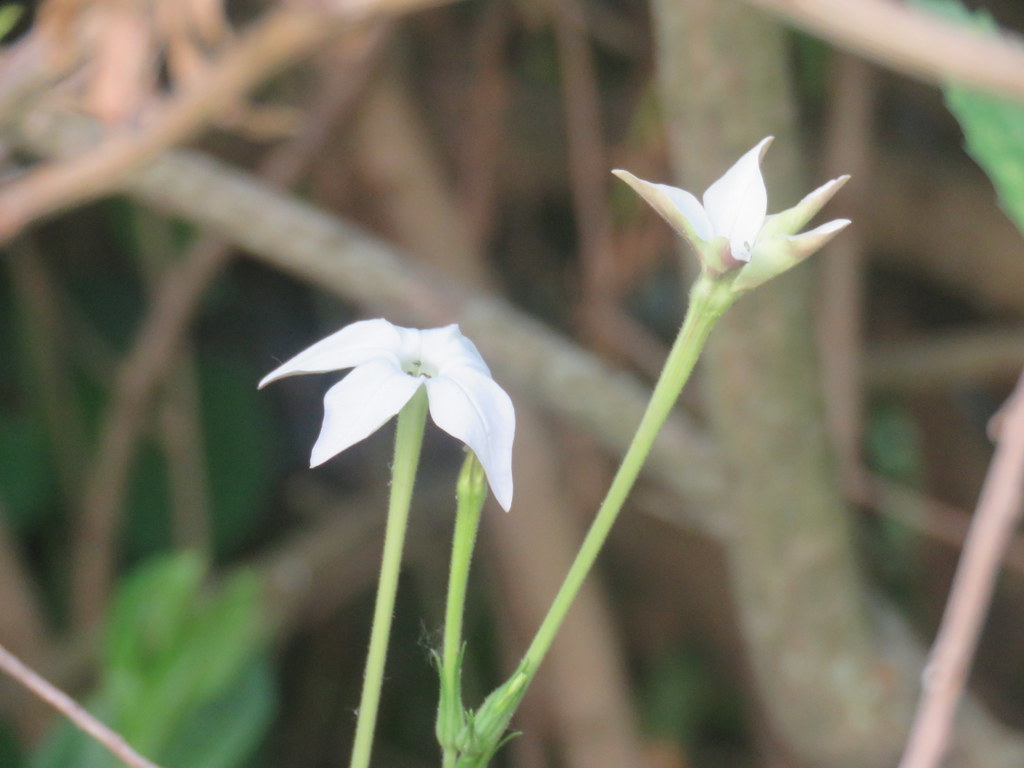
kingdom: Plantae
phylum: Tracheophyta
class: Magnoliopsida
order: Solanales
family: Solanaceae
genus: Nicotiana
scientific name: Nicotiana longiflora
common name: Long-flowered tobacco
